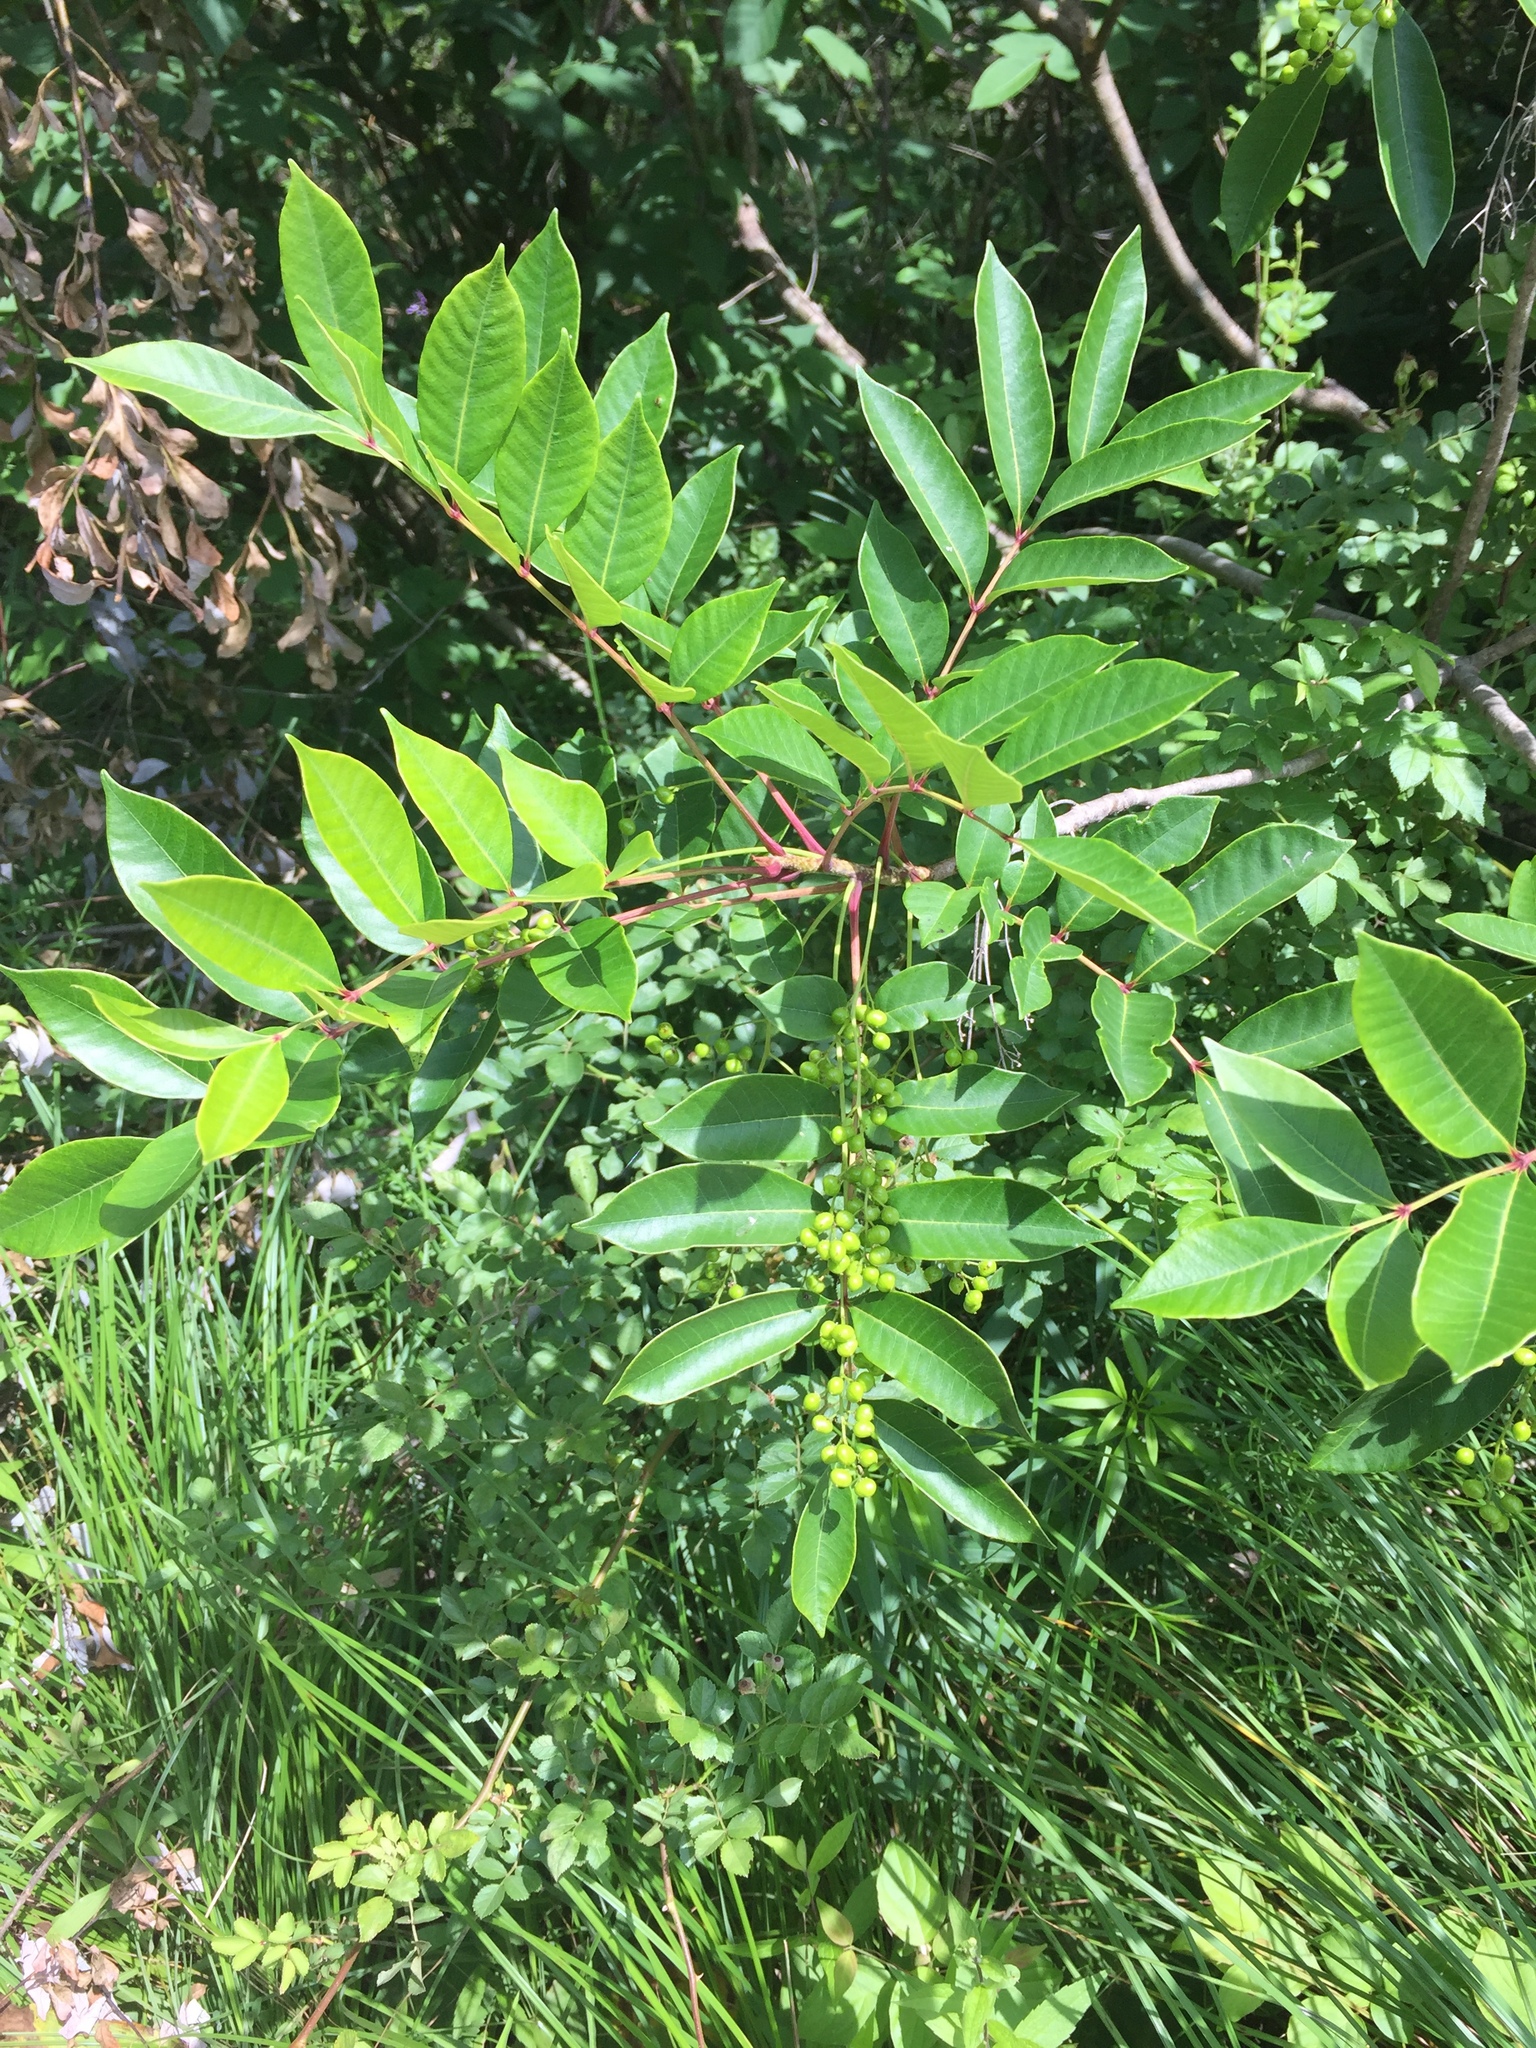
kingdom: Plantae
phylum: Tracheophyta
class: Magnoliopsida
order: Sapindales
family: Anacardiaceae
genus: Toxicodendron
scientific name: Toxicodendron vernix
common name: Poison sumac
